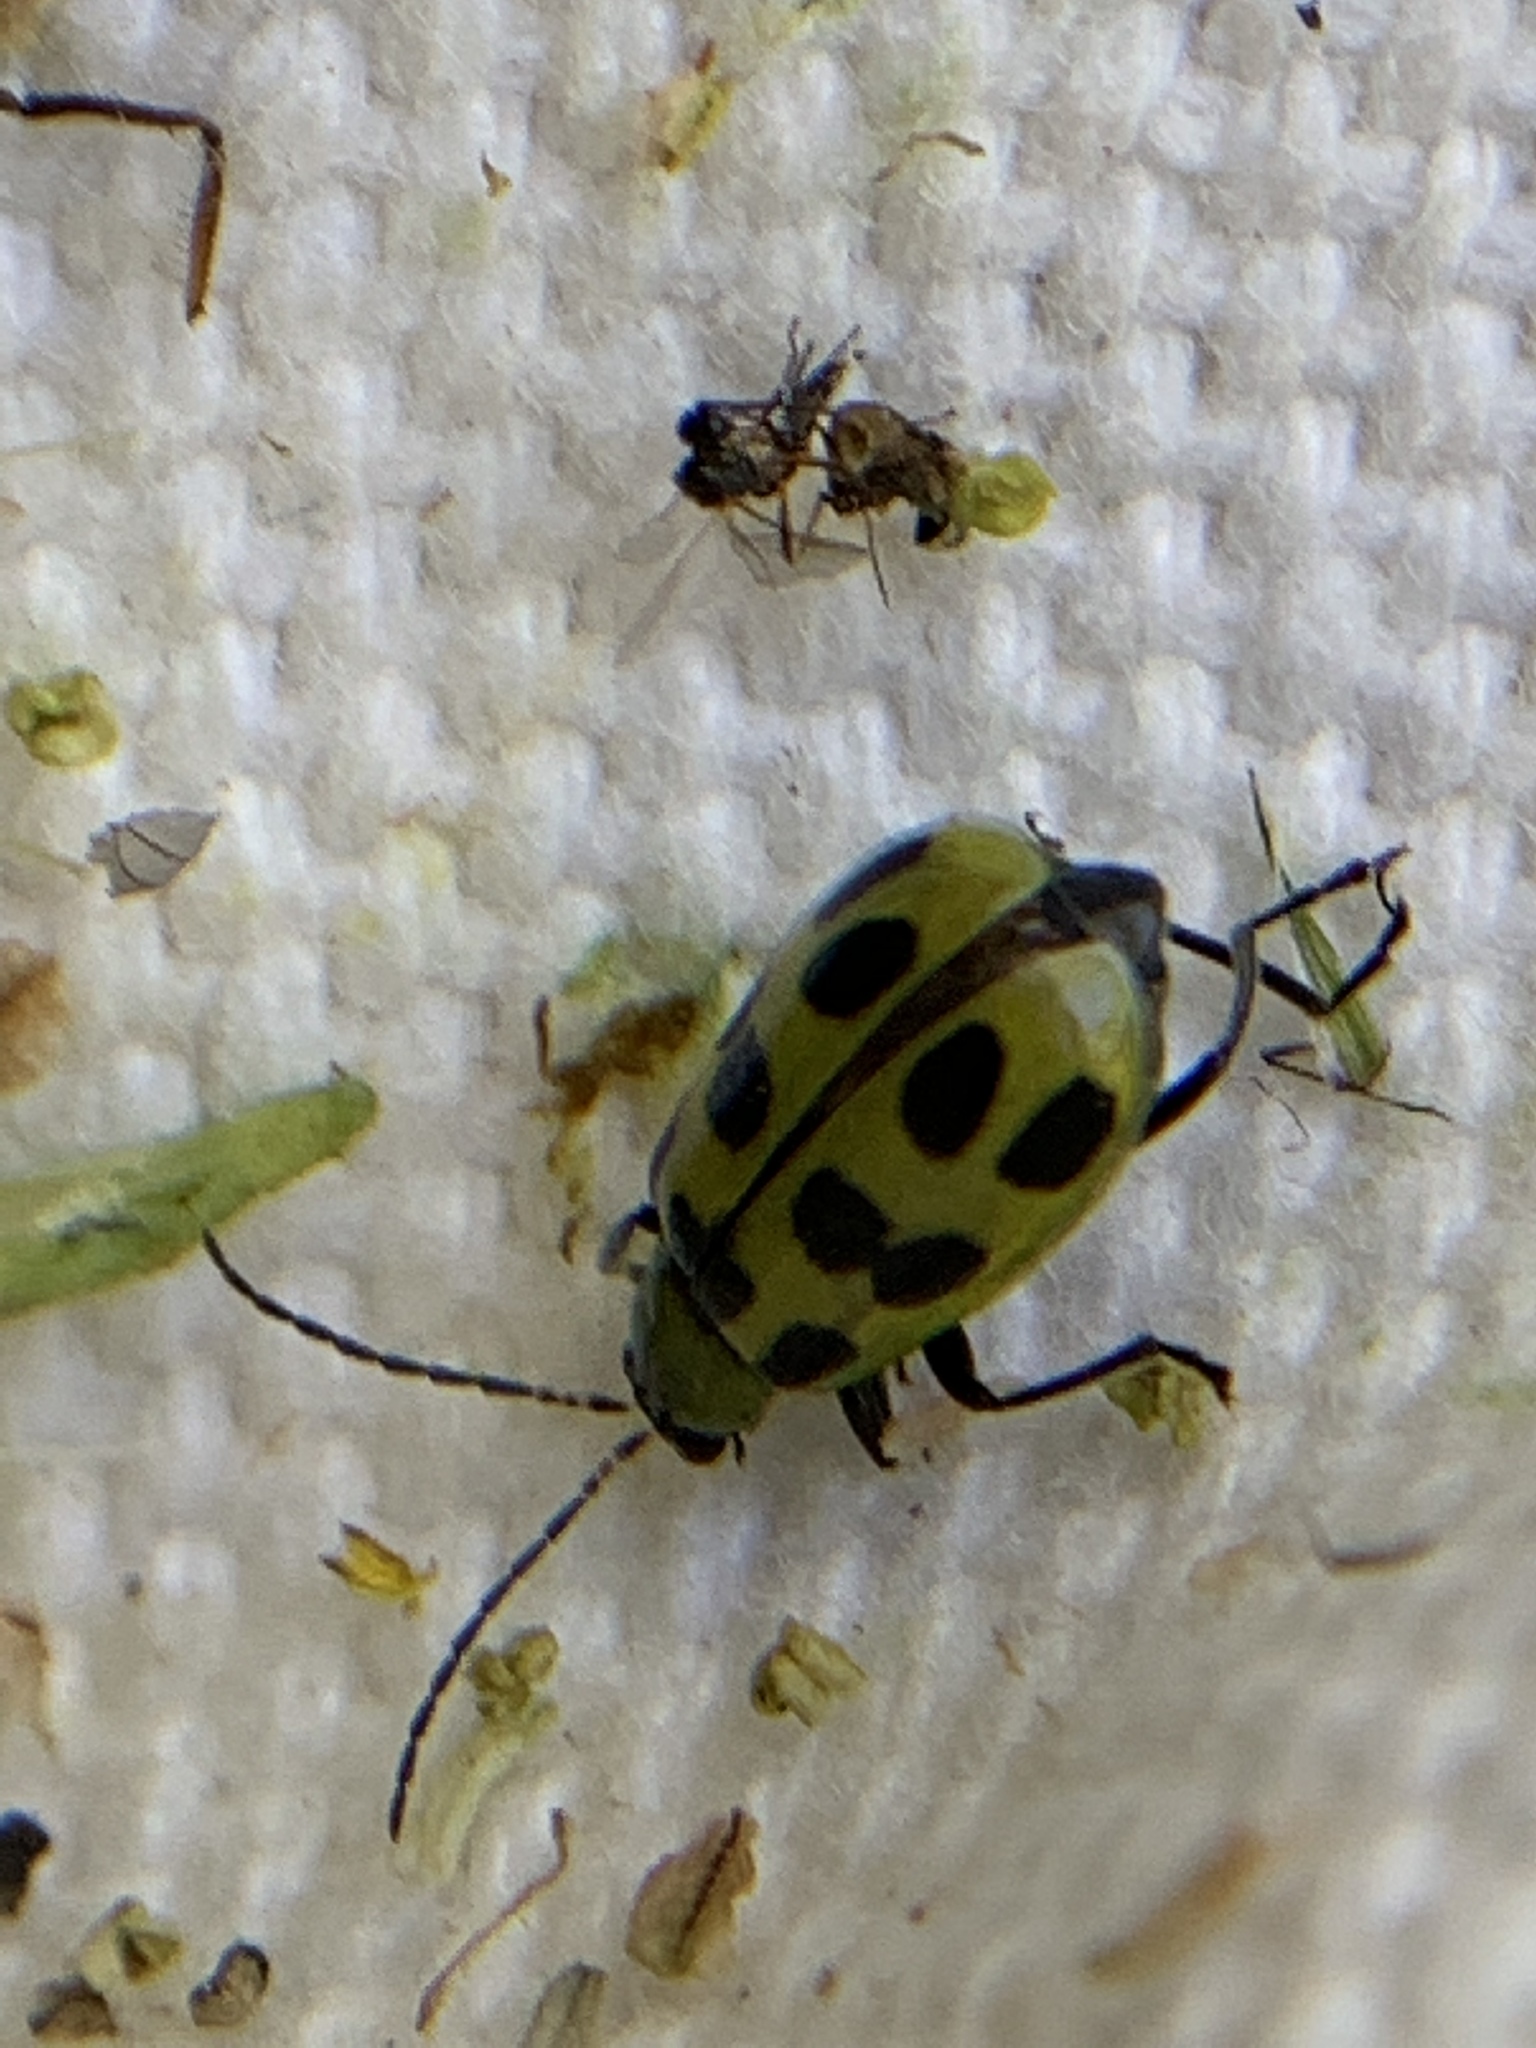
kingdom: Animalia
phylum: Arthropoda
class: Insecta
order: Coleoptera
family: Chrysomelidae
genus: Diabrotica
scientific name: Diabrotica undecimpunctata
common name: Spotted cucumber beetle
